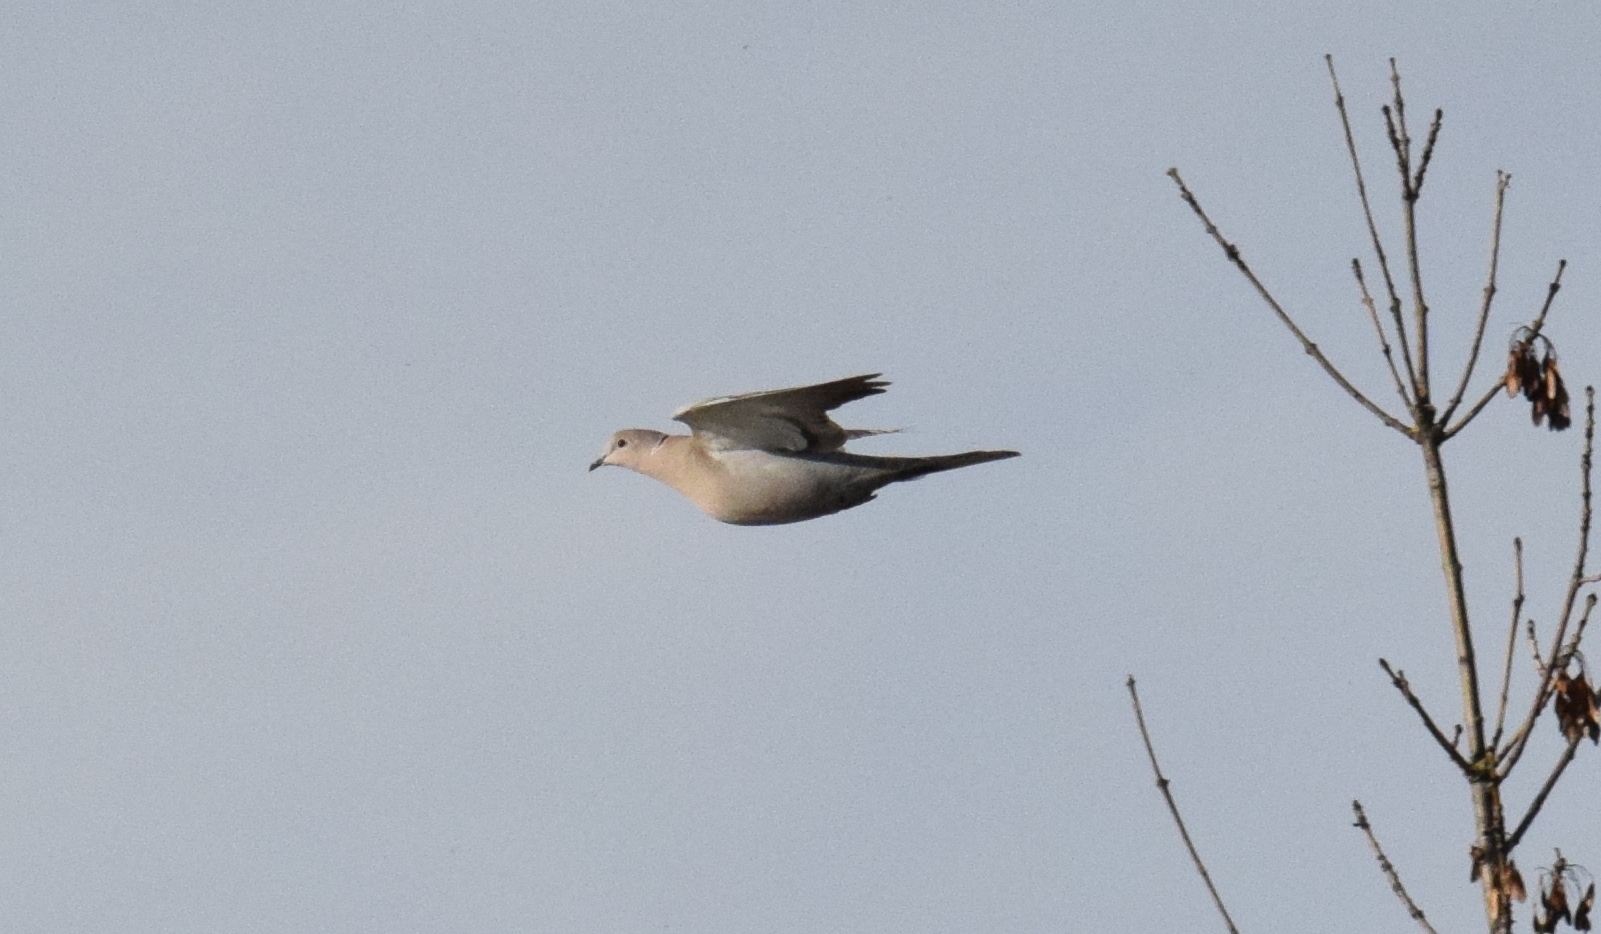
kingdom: Animalia
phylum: Chordata
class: Aves
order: Columbiformes
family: Columbidae
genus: Streptopelia
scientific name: Streptopelia decaocto
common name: Eurasian collared dove
